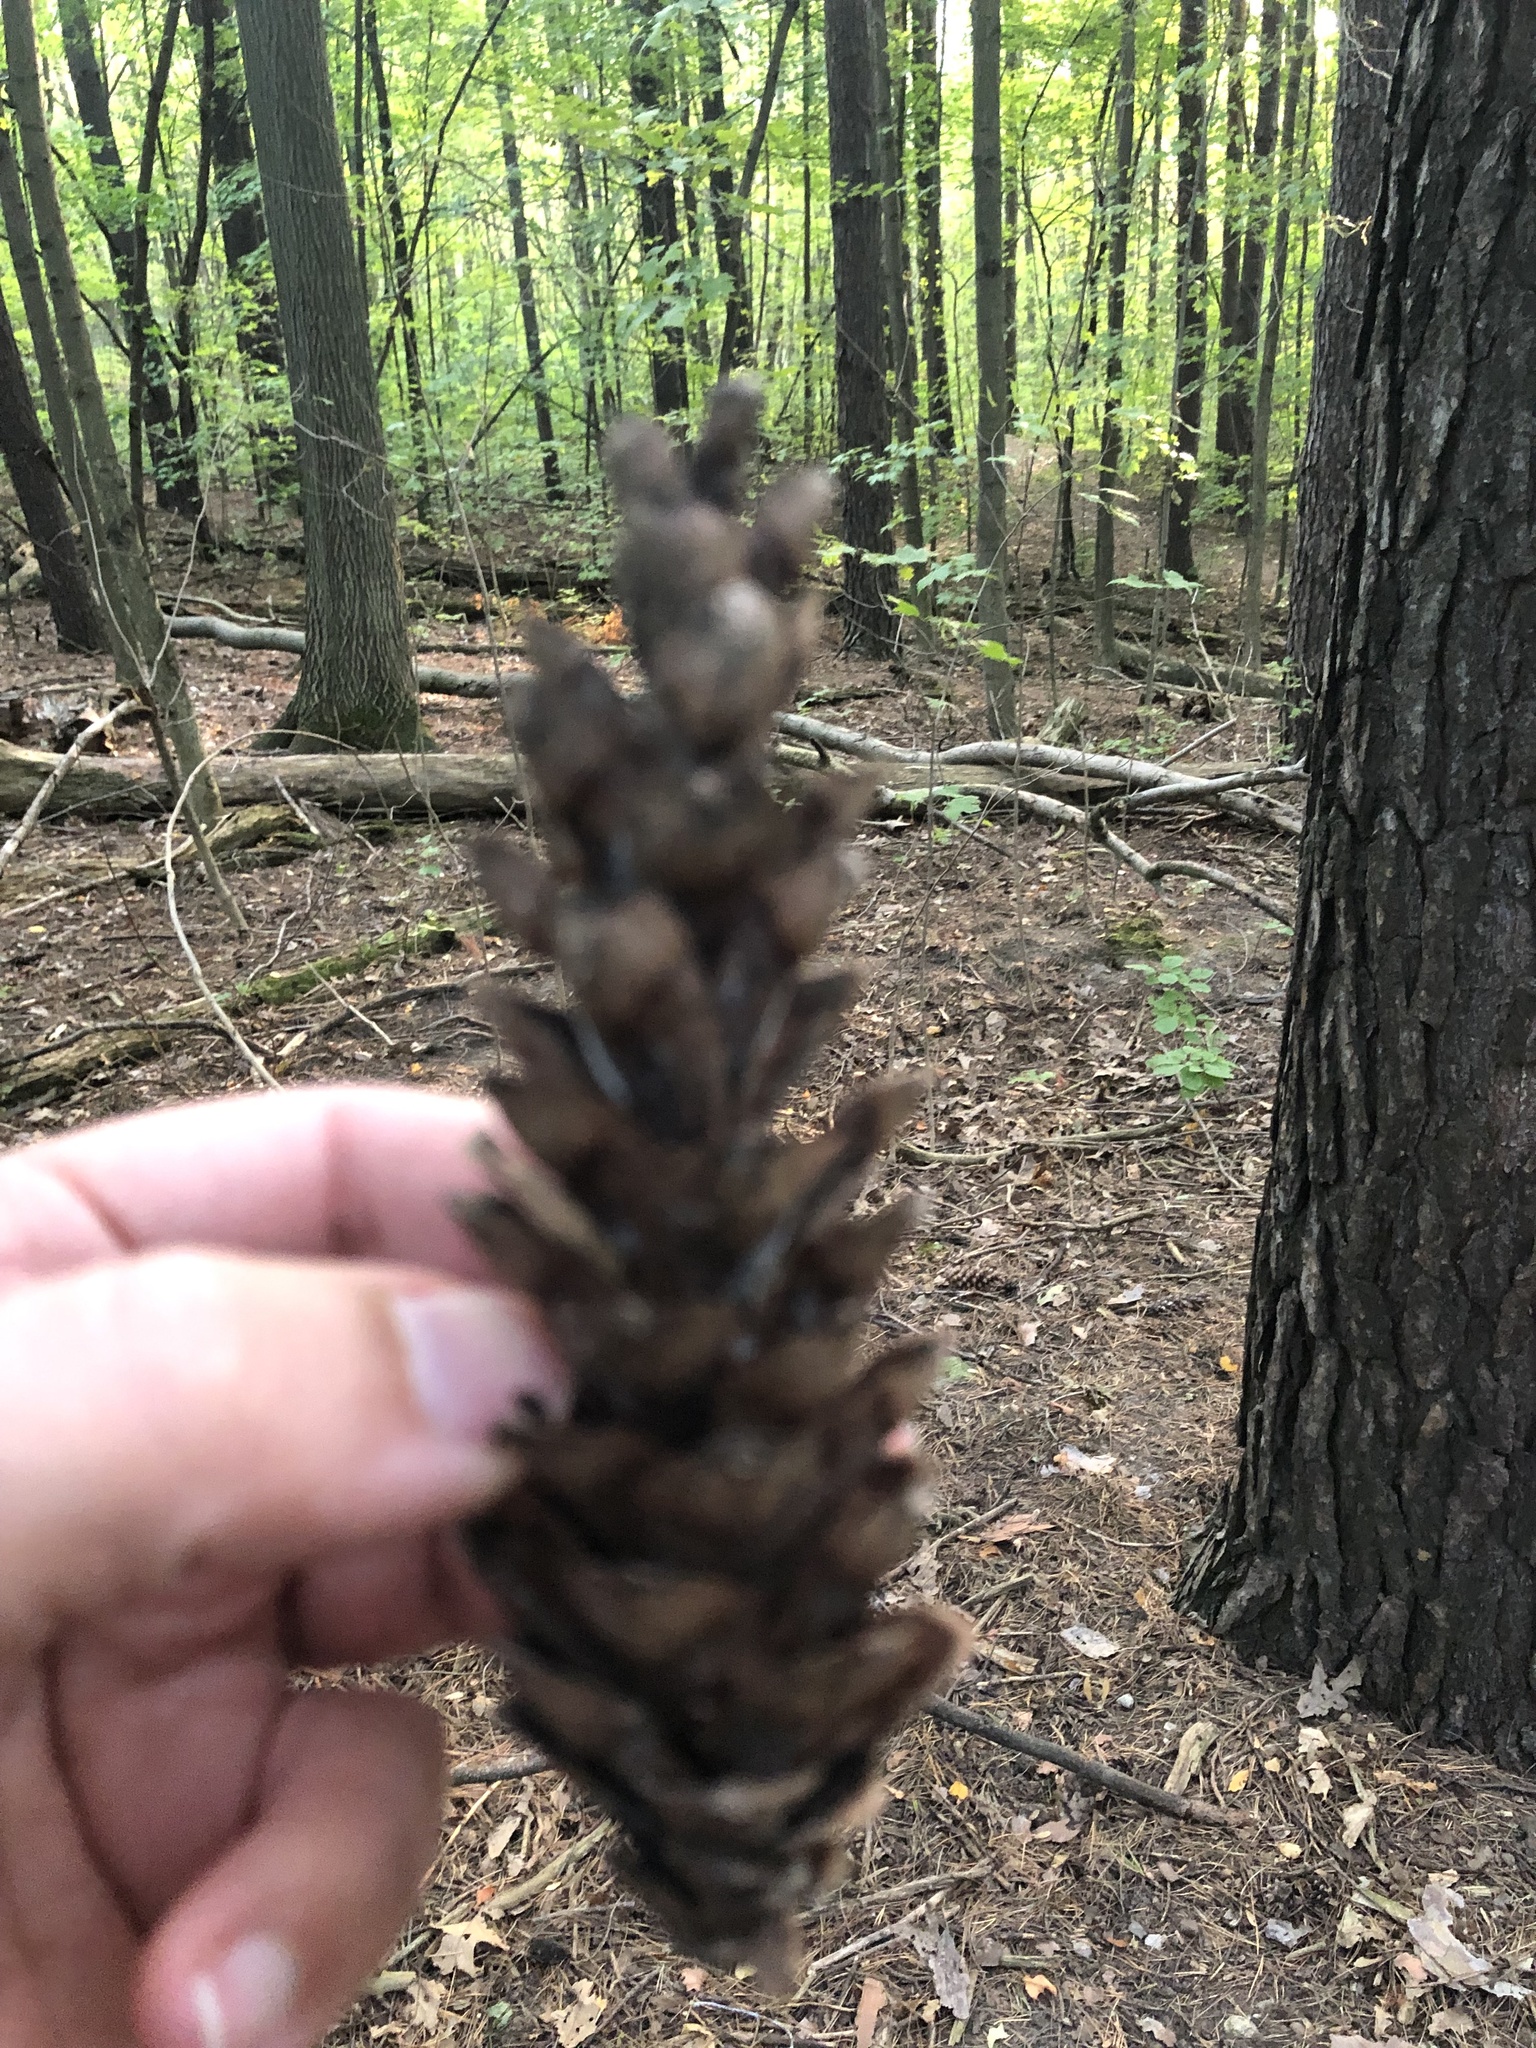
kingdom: Plantae
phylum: Tracheophyta
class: Pinopsida
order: Pinales
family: Pinaceae
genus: Pinus
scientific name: Pinus strobus
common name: Weymouth pine
